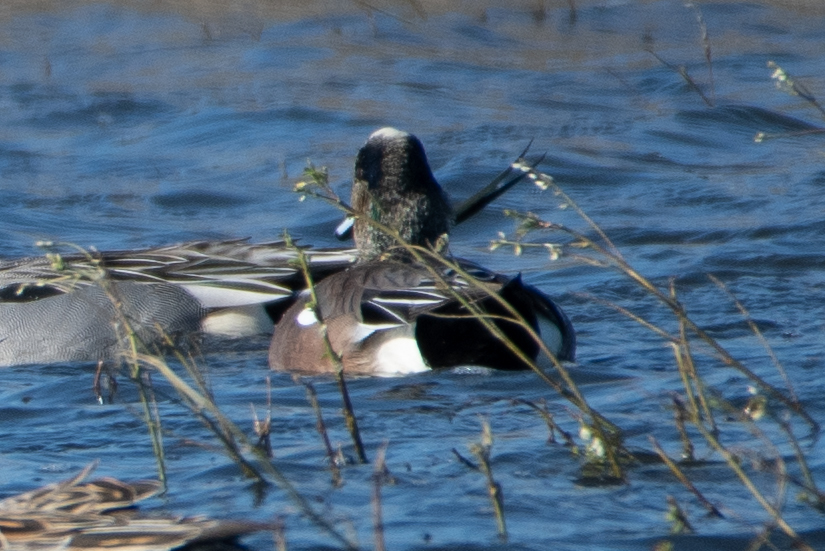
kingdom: Animalia
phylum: Chordata
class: Aves
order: Anseriformes
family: Anatidae
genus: Mareca
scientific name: Mareca americana
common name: American wigeon
